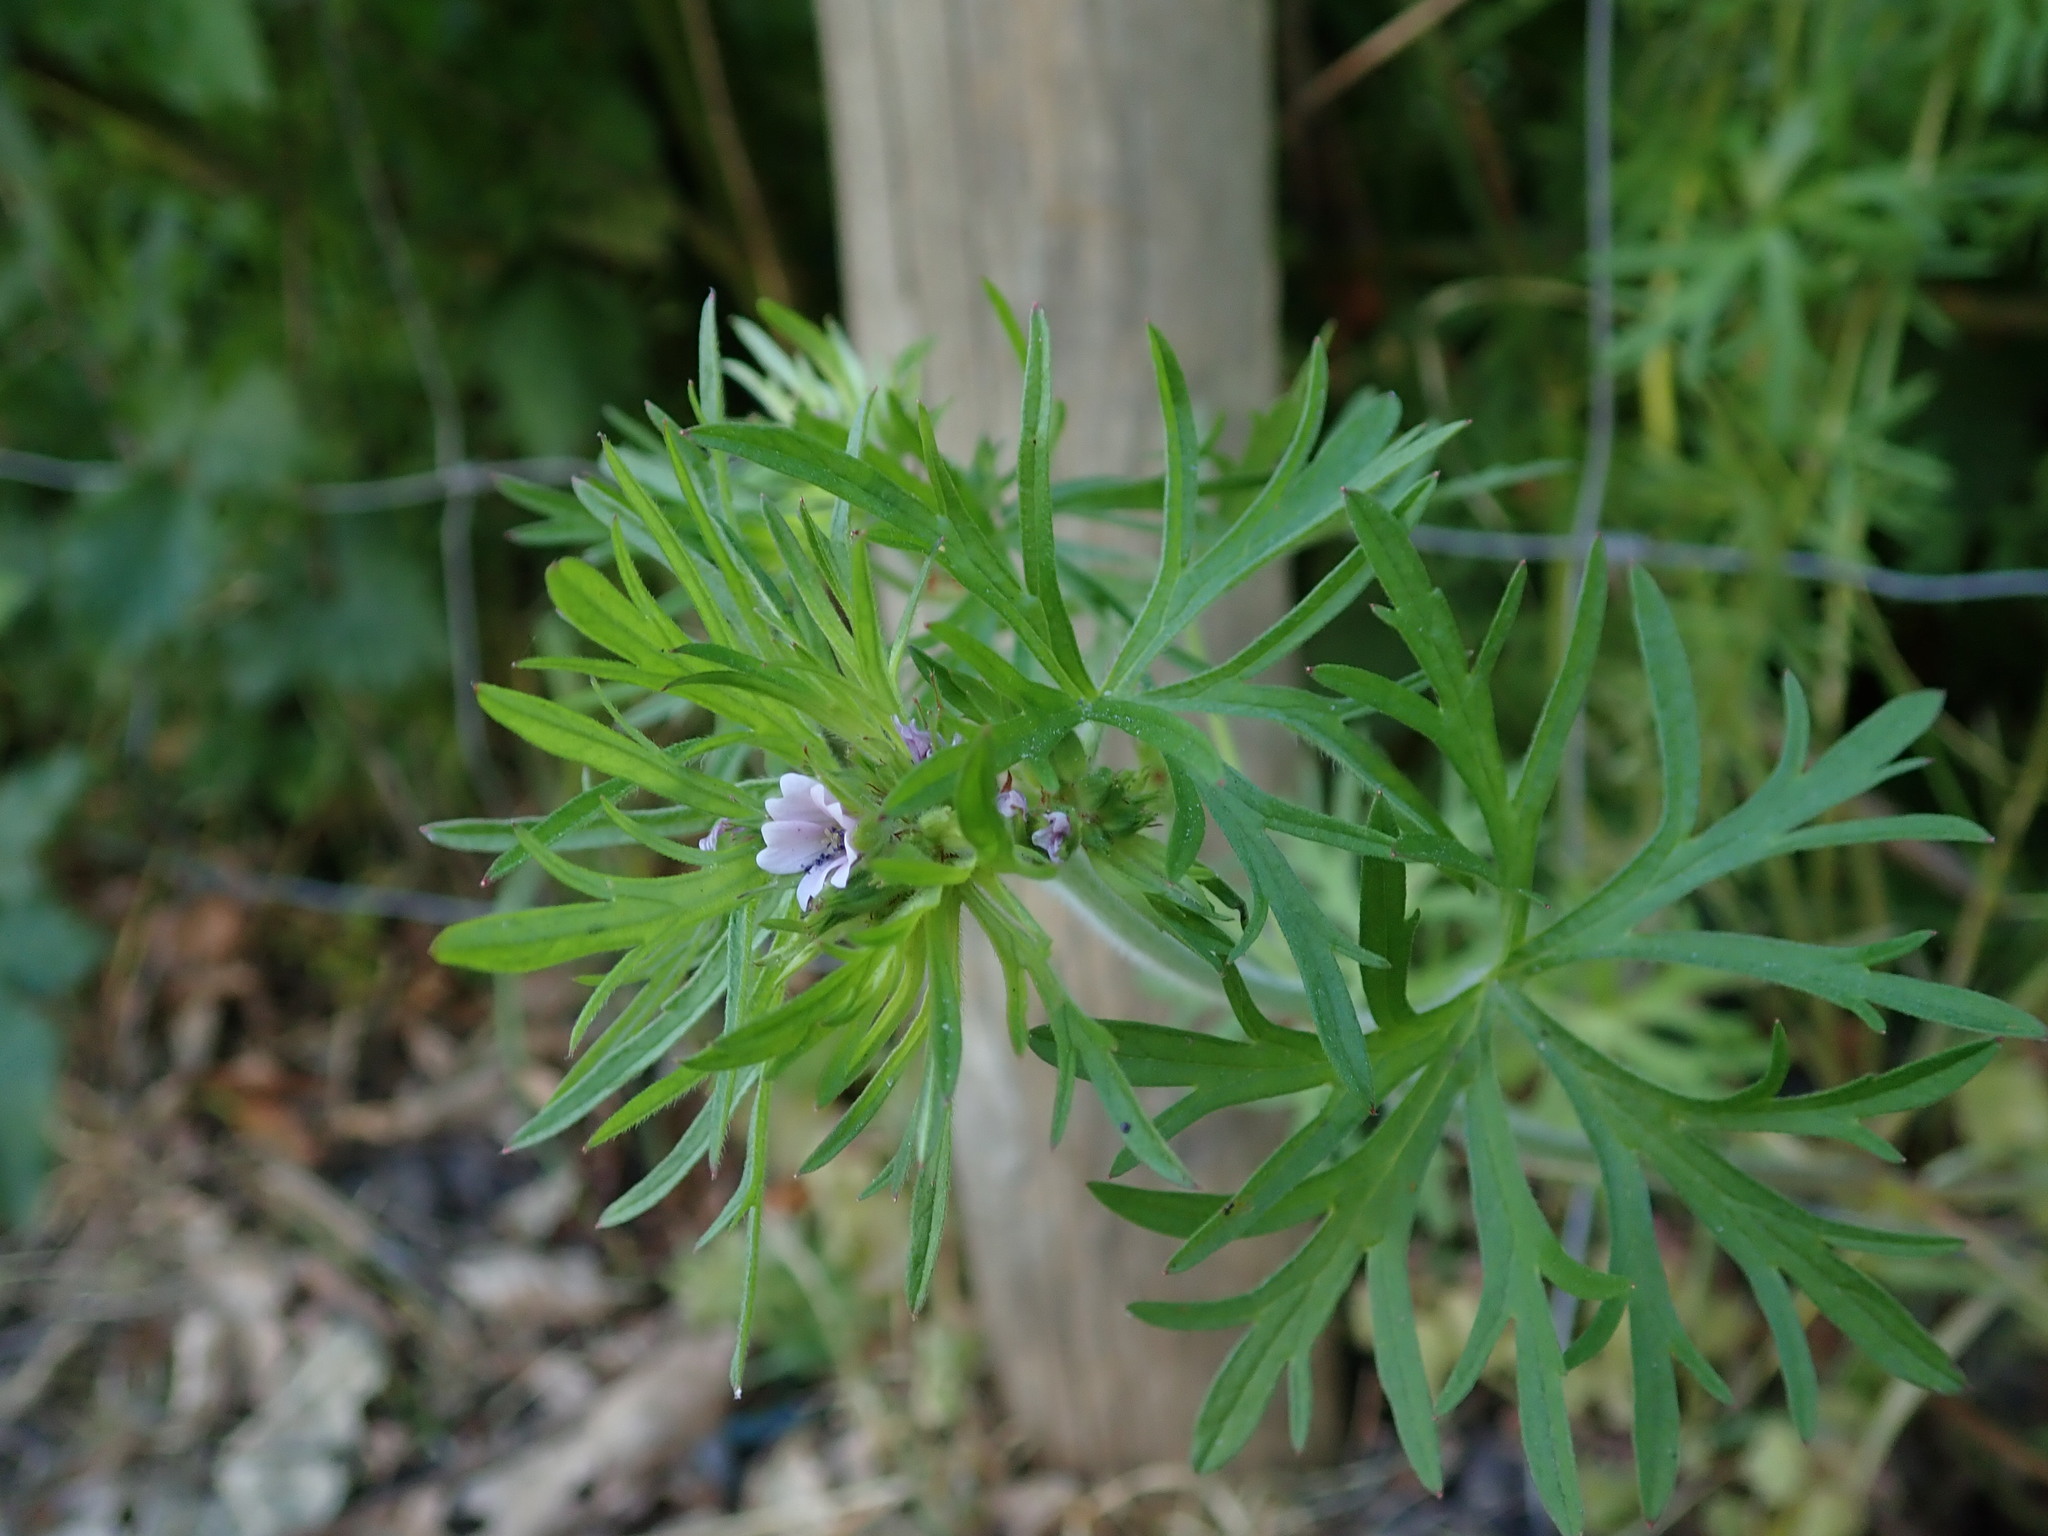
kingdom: Plantae
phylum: Tracheophyta
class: Magnoliopsida
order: Geraniales
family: Geraniaceae
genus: Geranium
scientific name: Geranium dissectum
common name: Cut-leaved crane's-bill
